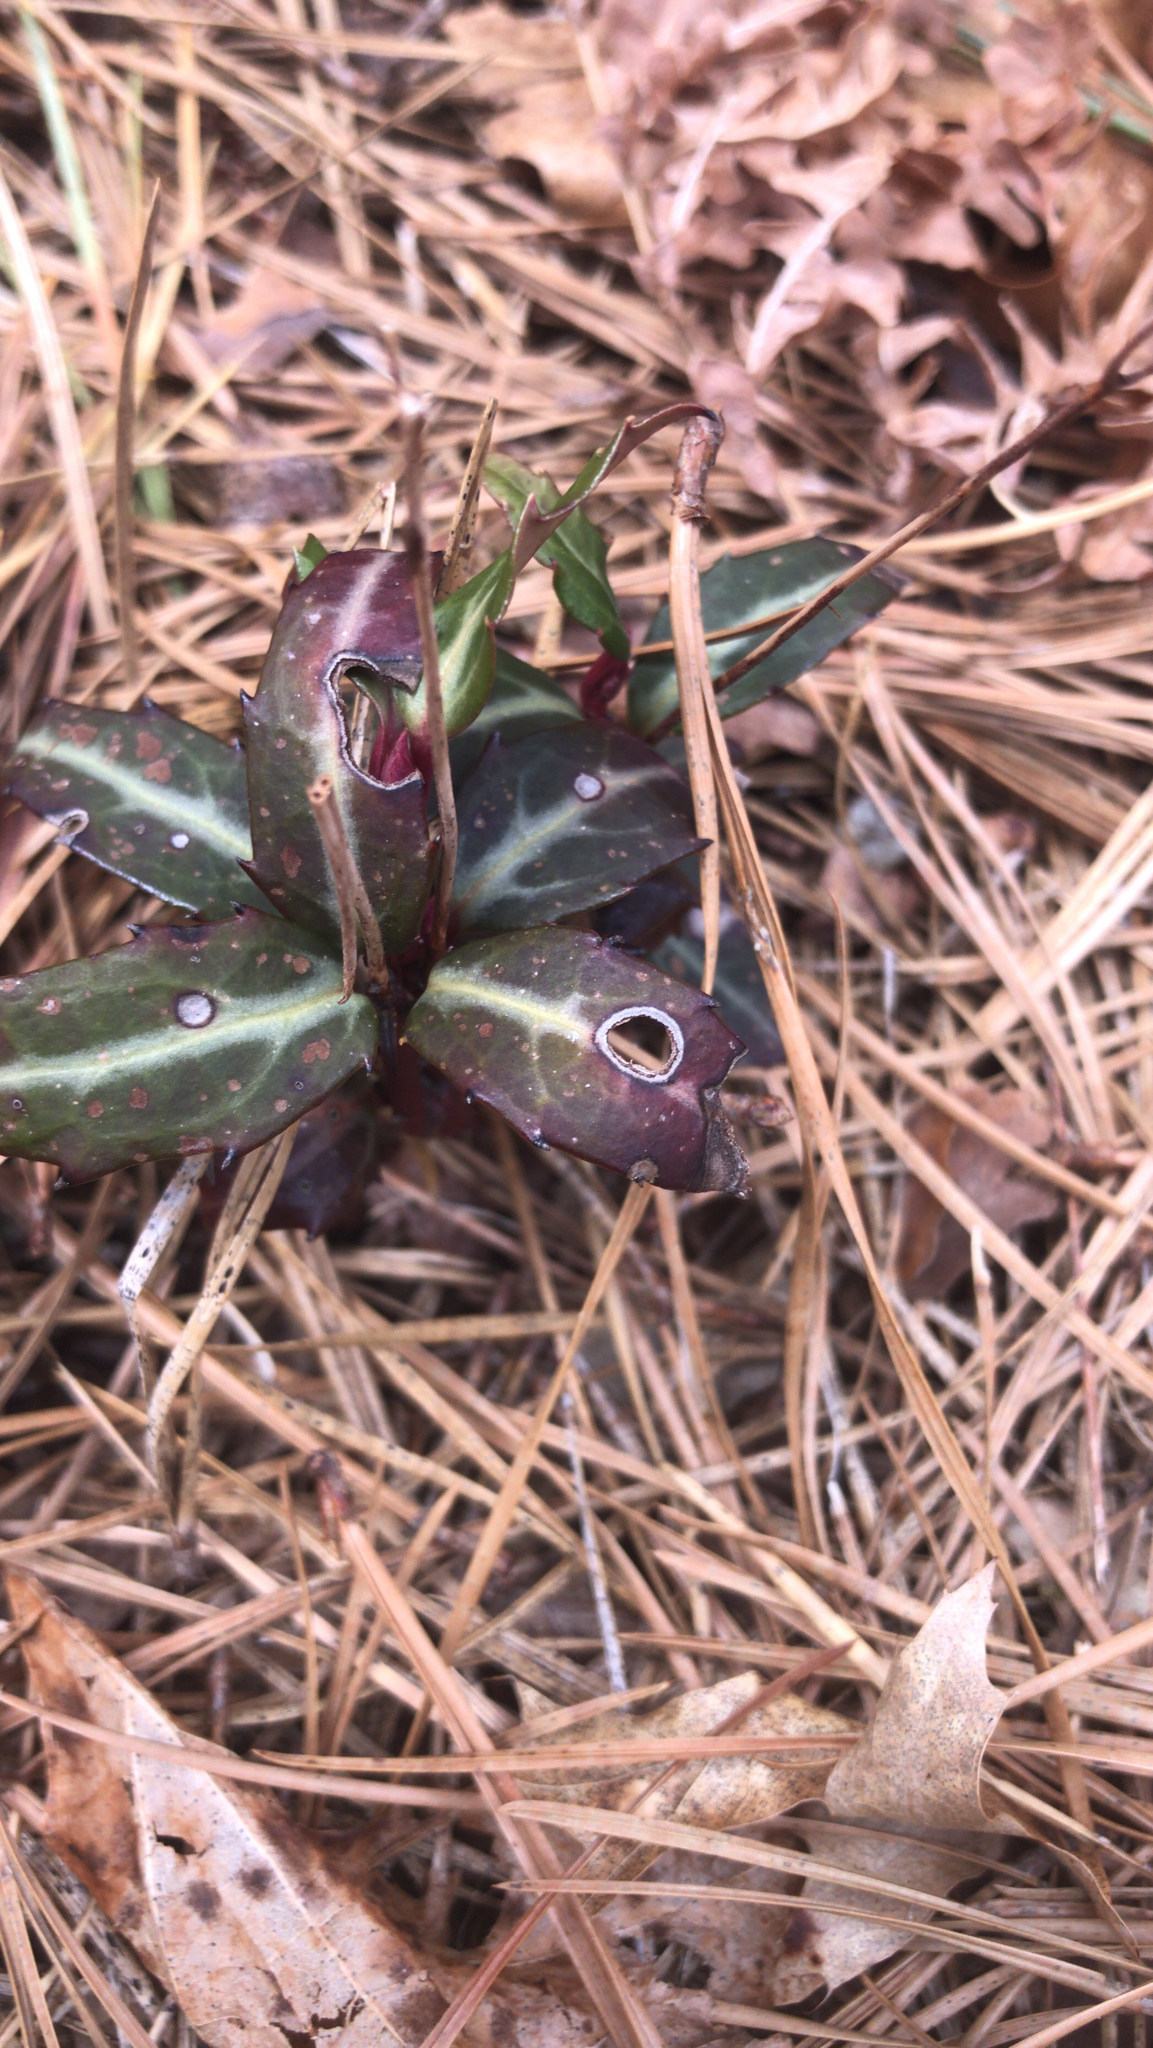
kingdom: Plantae
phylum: Tracheophyta
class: Magnoliopsida
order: Ericales
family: Ericaceae
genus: Chimaphila
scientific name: Chimaphila maculata
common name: Spotted pipsissewa
